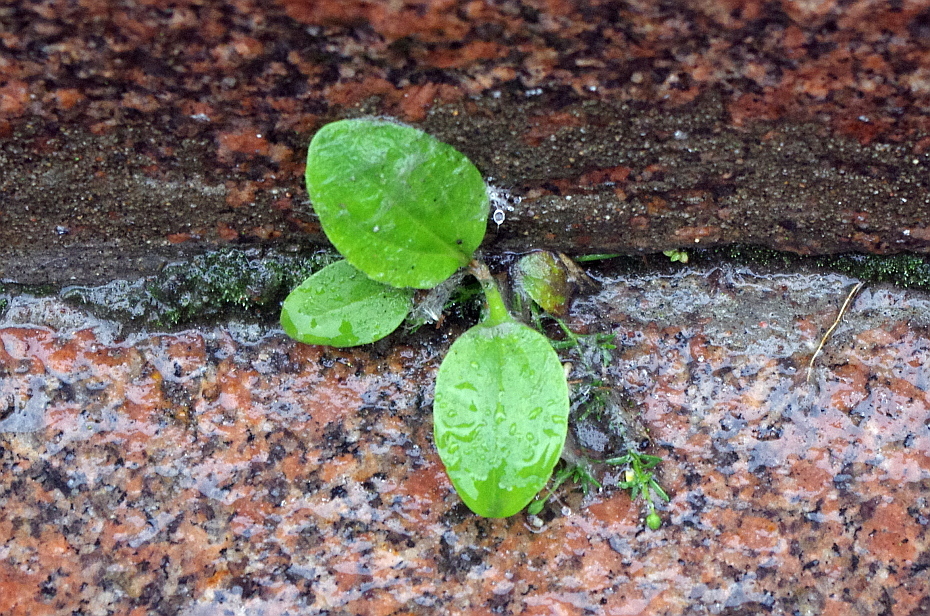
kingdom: Plantae
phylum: Tracheophyta
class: Magnoliopsida
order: Lamiales
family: Plantaginaceae
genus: Plantago
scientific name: Plantago major
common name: Common plantain
